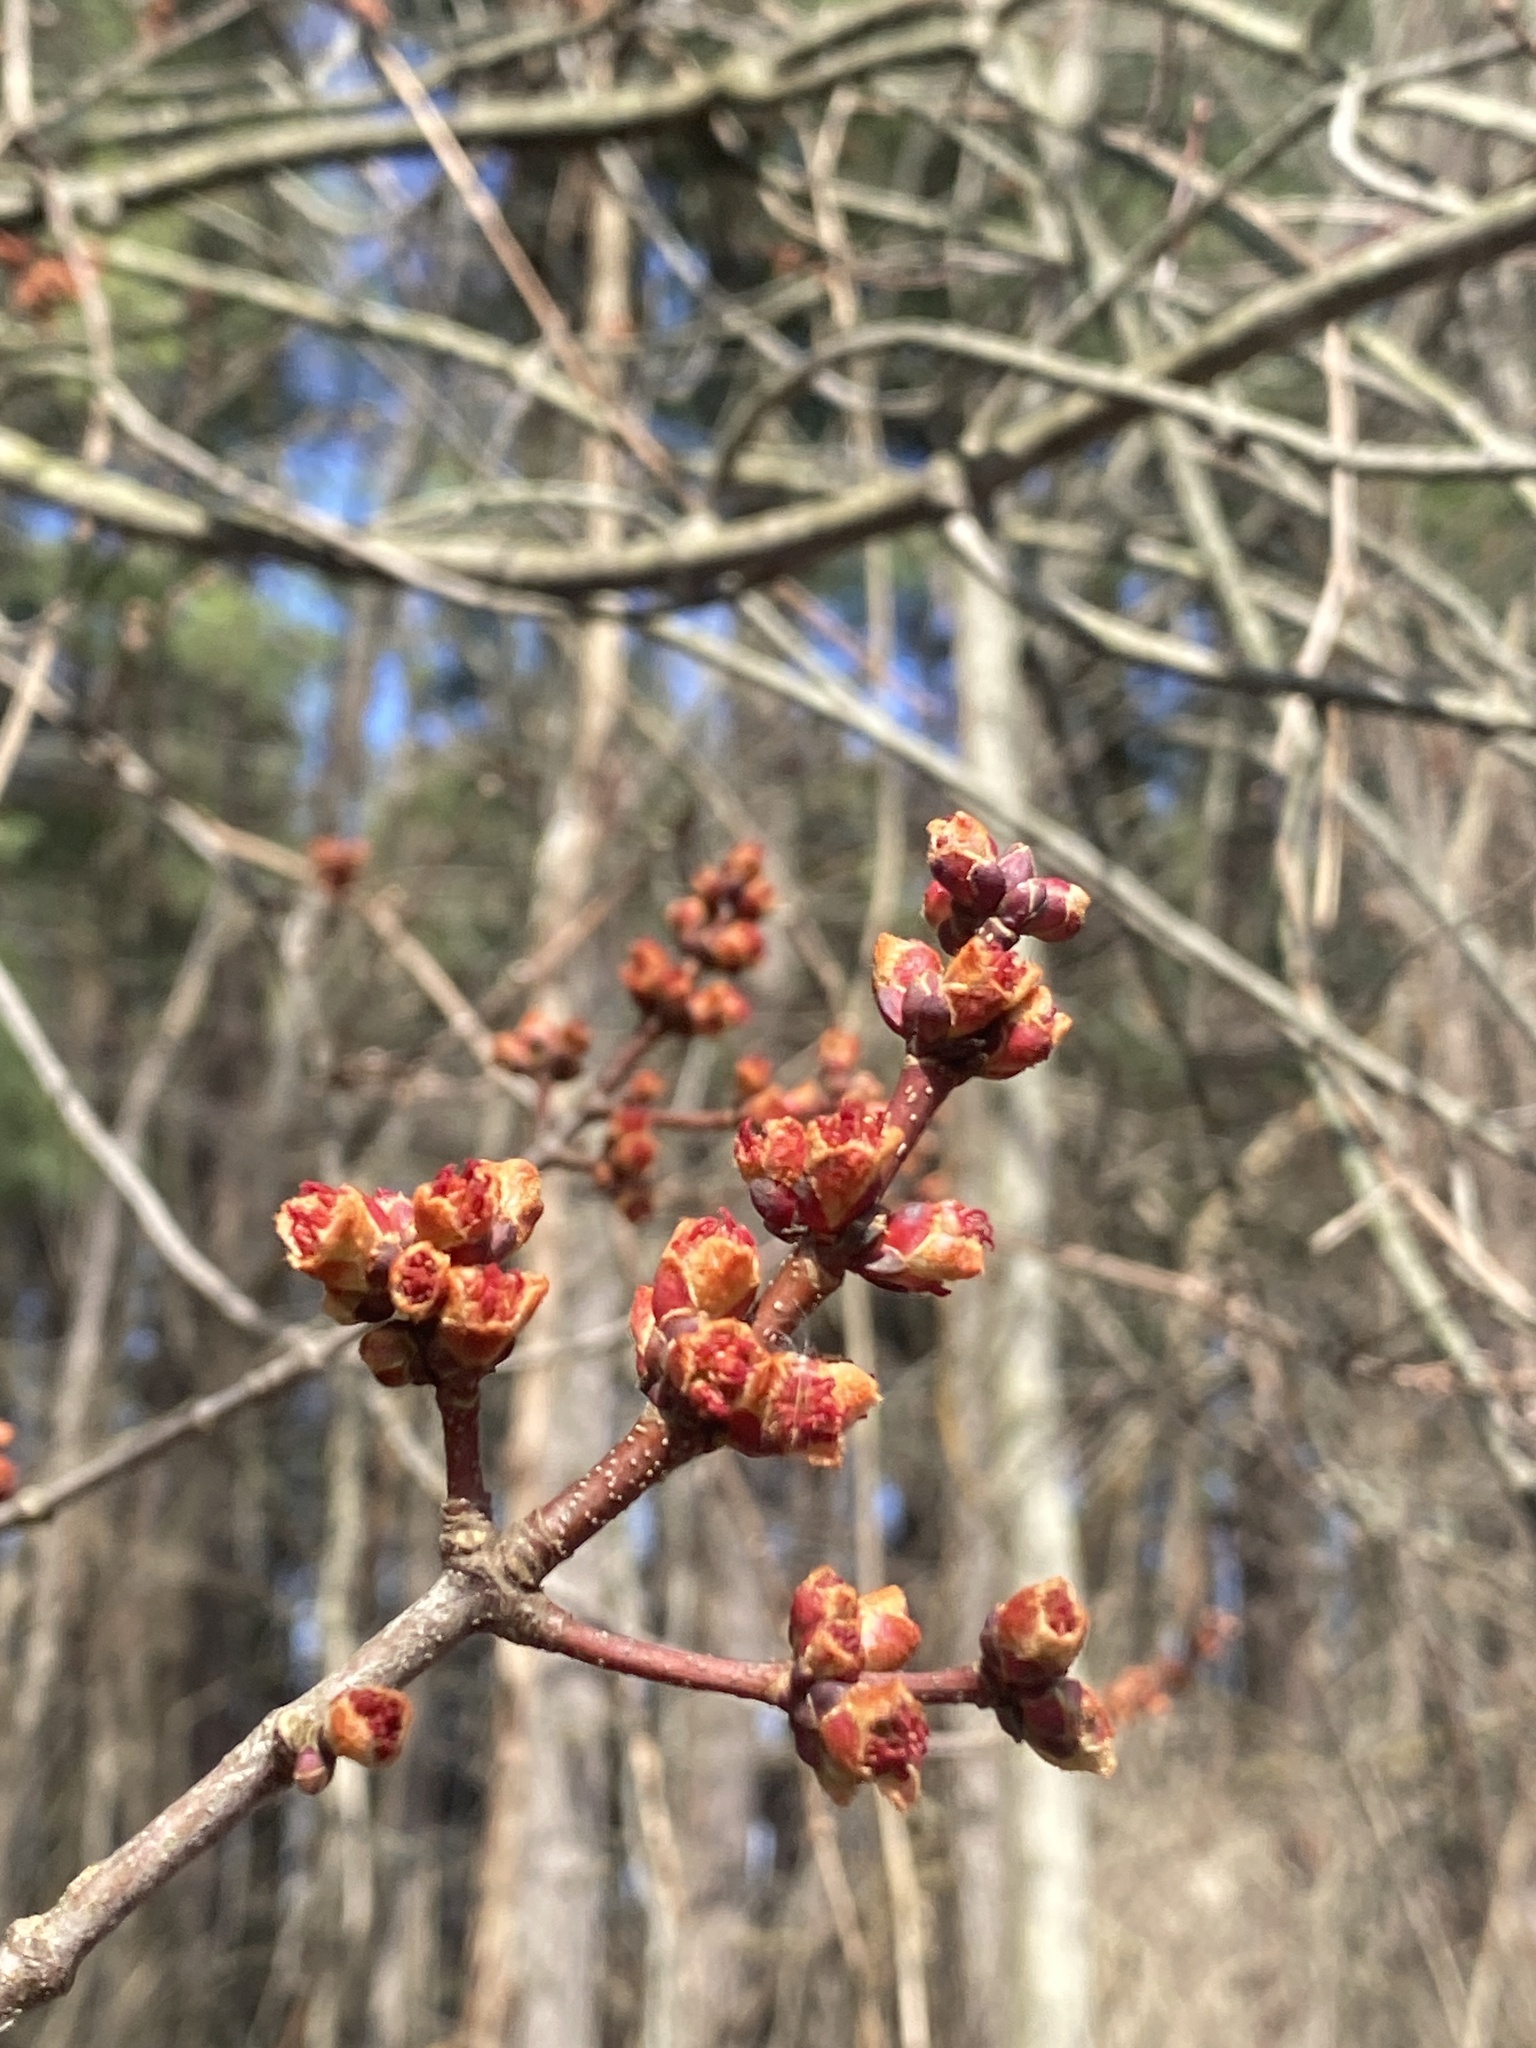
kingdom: Plantae
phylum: Tracheophyta
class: Magnoliopsida
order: Sapindales
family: Sapindaceae
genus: Acer
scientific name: Acer rubrum
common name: Red maple
